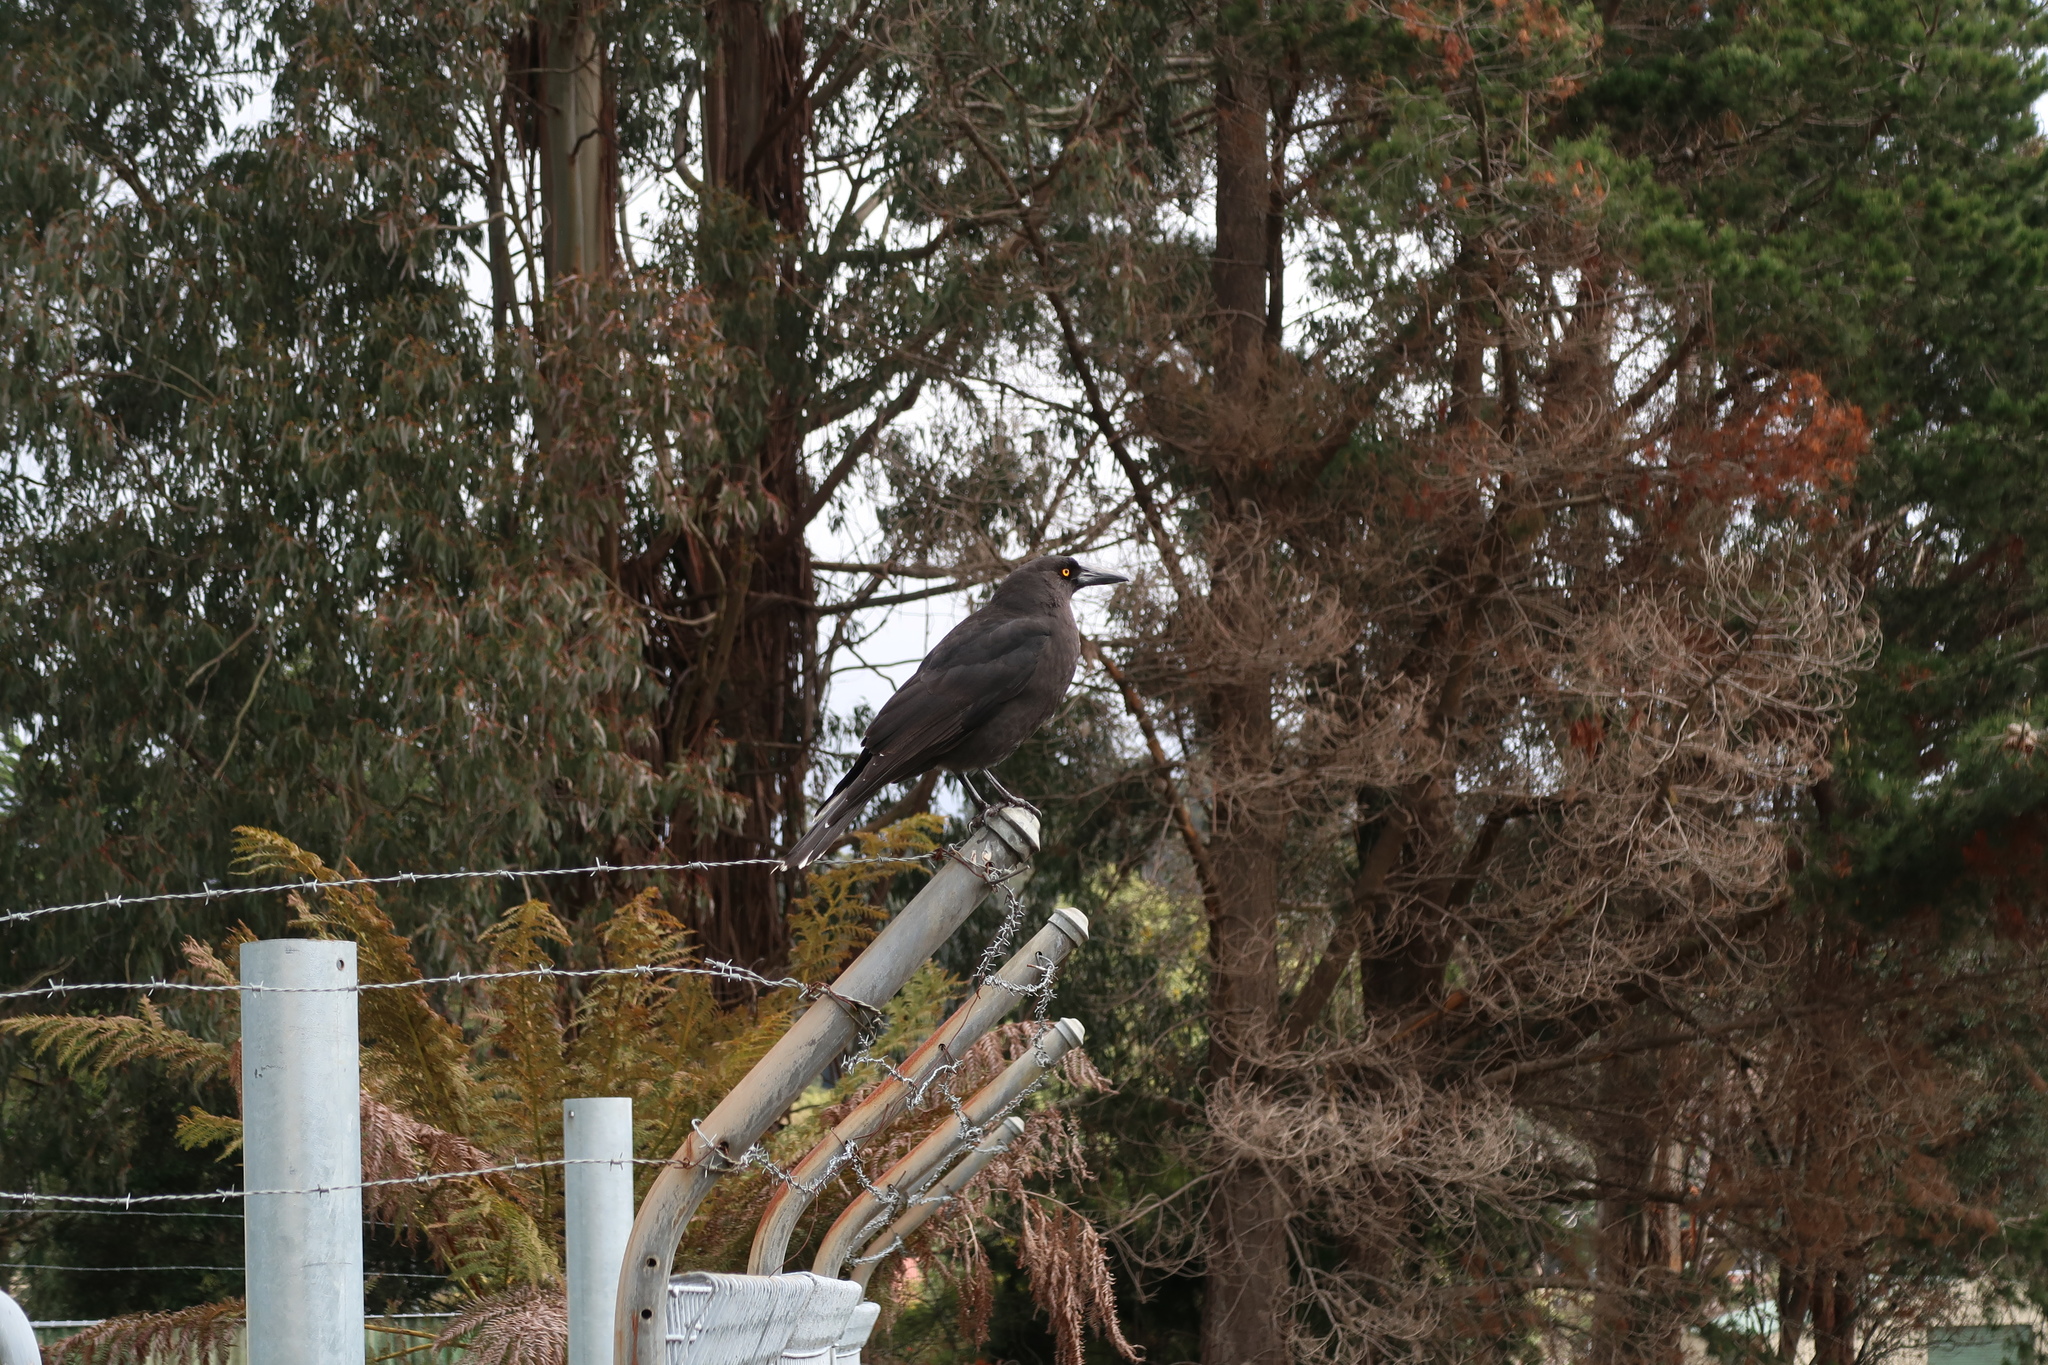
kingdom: Animalia
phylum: Chordata
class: Aves
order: Passeriformes
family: Cracticidae
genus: Strepera
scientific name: Strepera fuliginosa
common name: Black currawong
